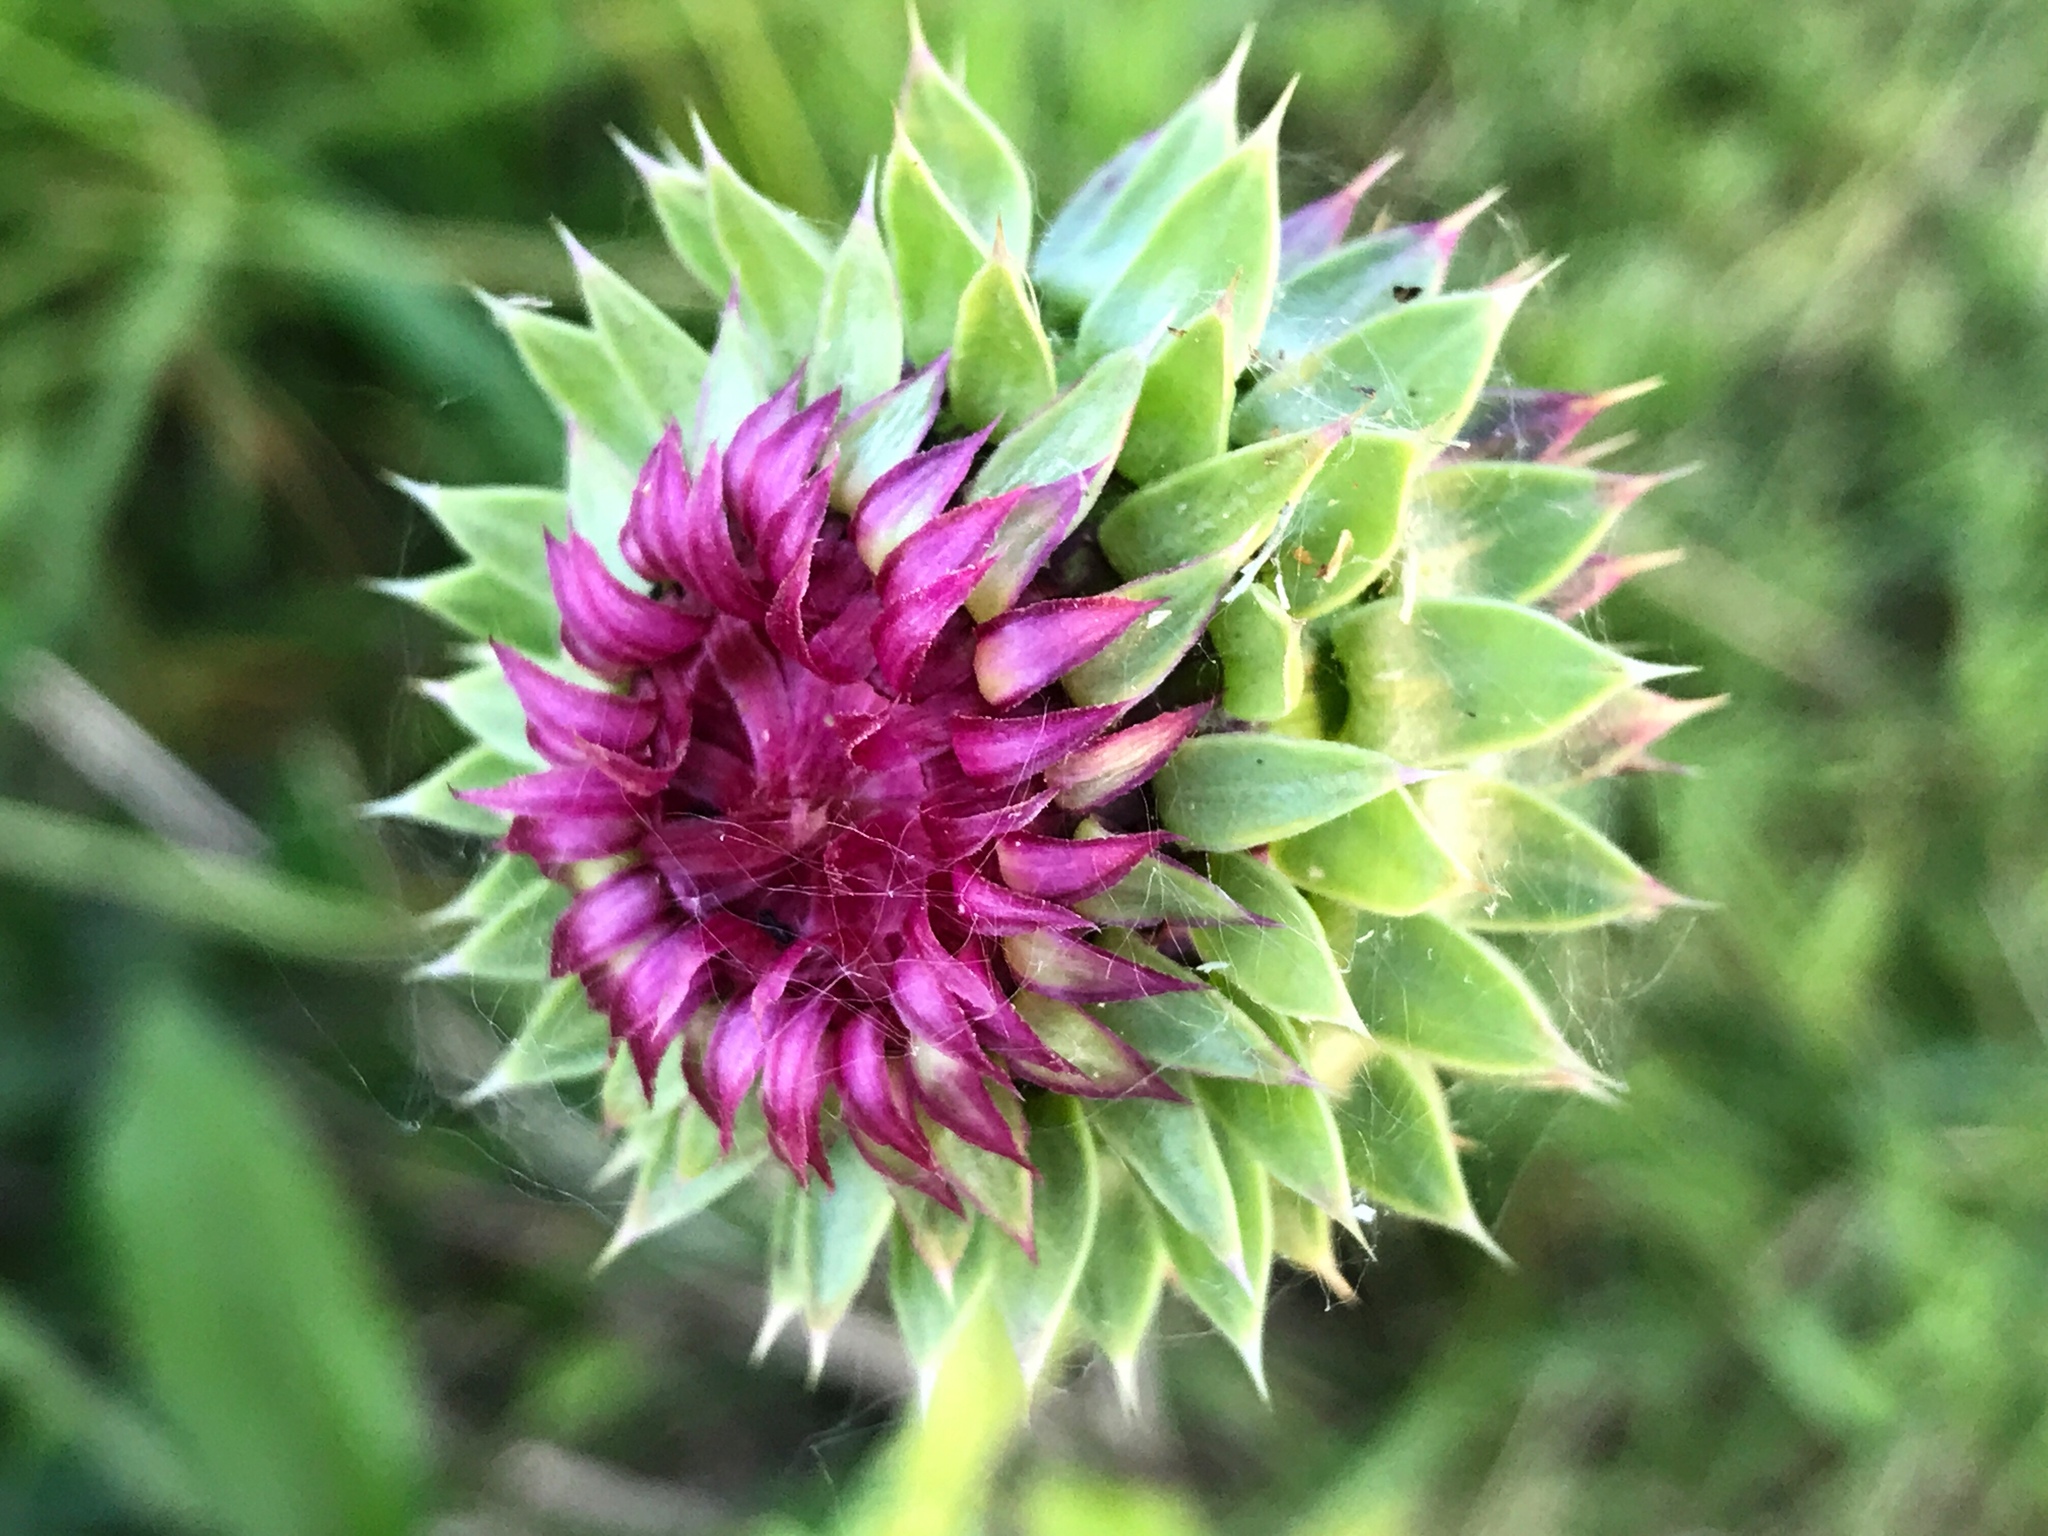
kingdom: Plantae
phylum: Tracheophyta
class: Magnoliopsida
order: Asterales
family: Asteraceae
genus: Carduus
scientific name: Carduus nutans
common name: Musk thistle
